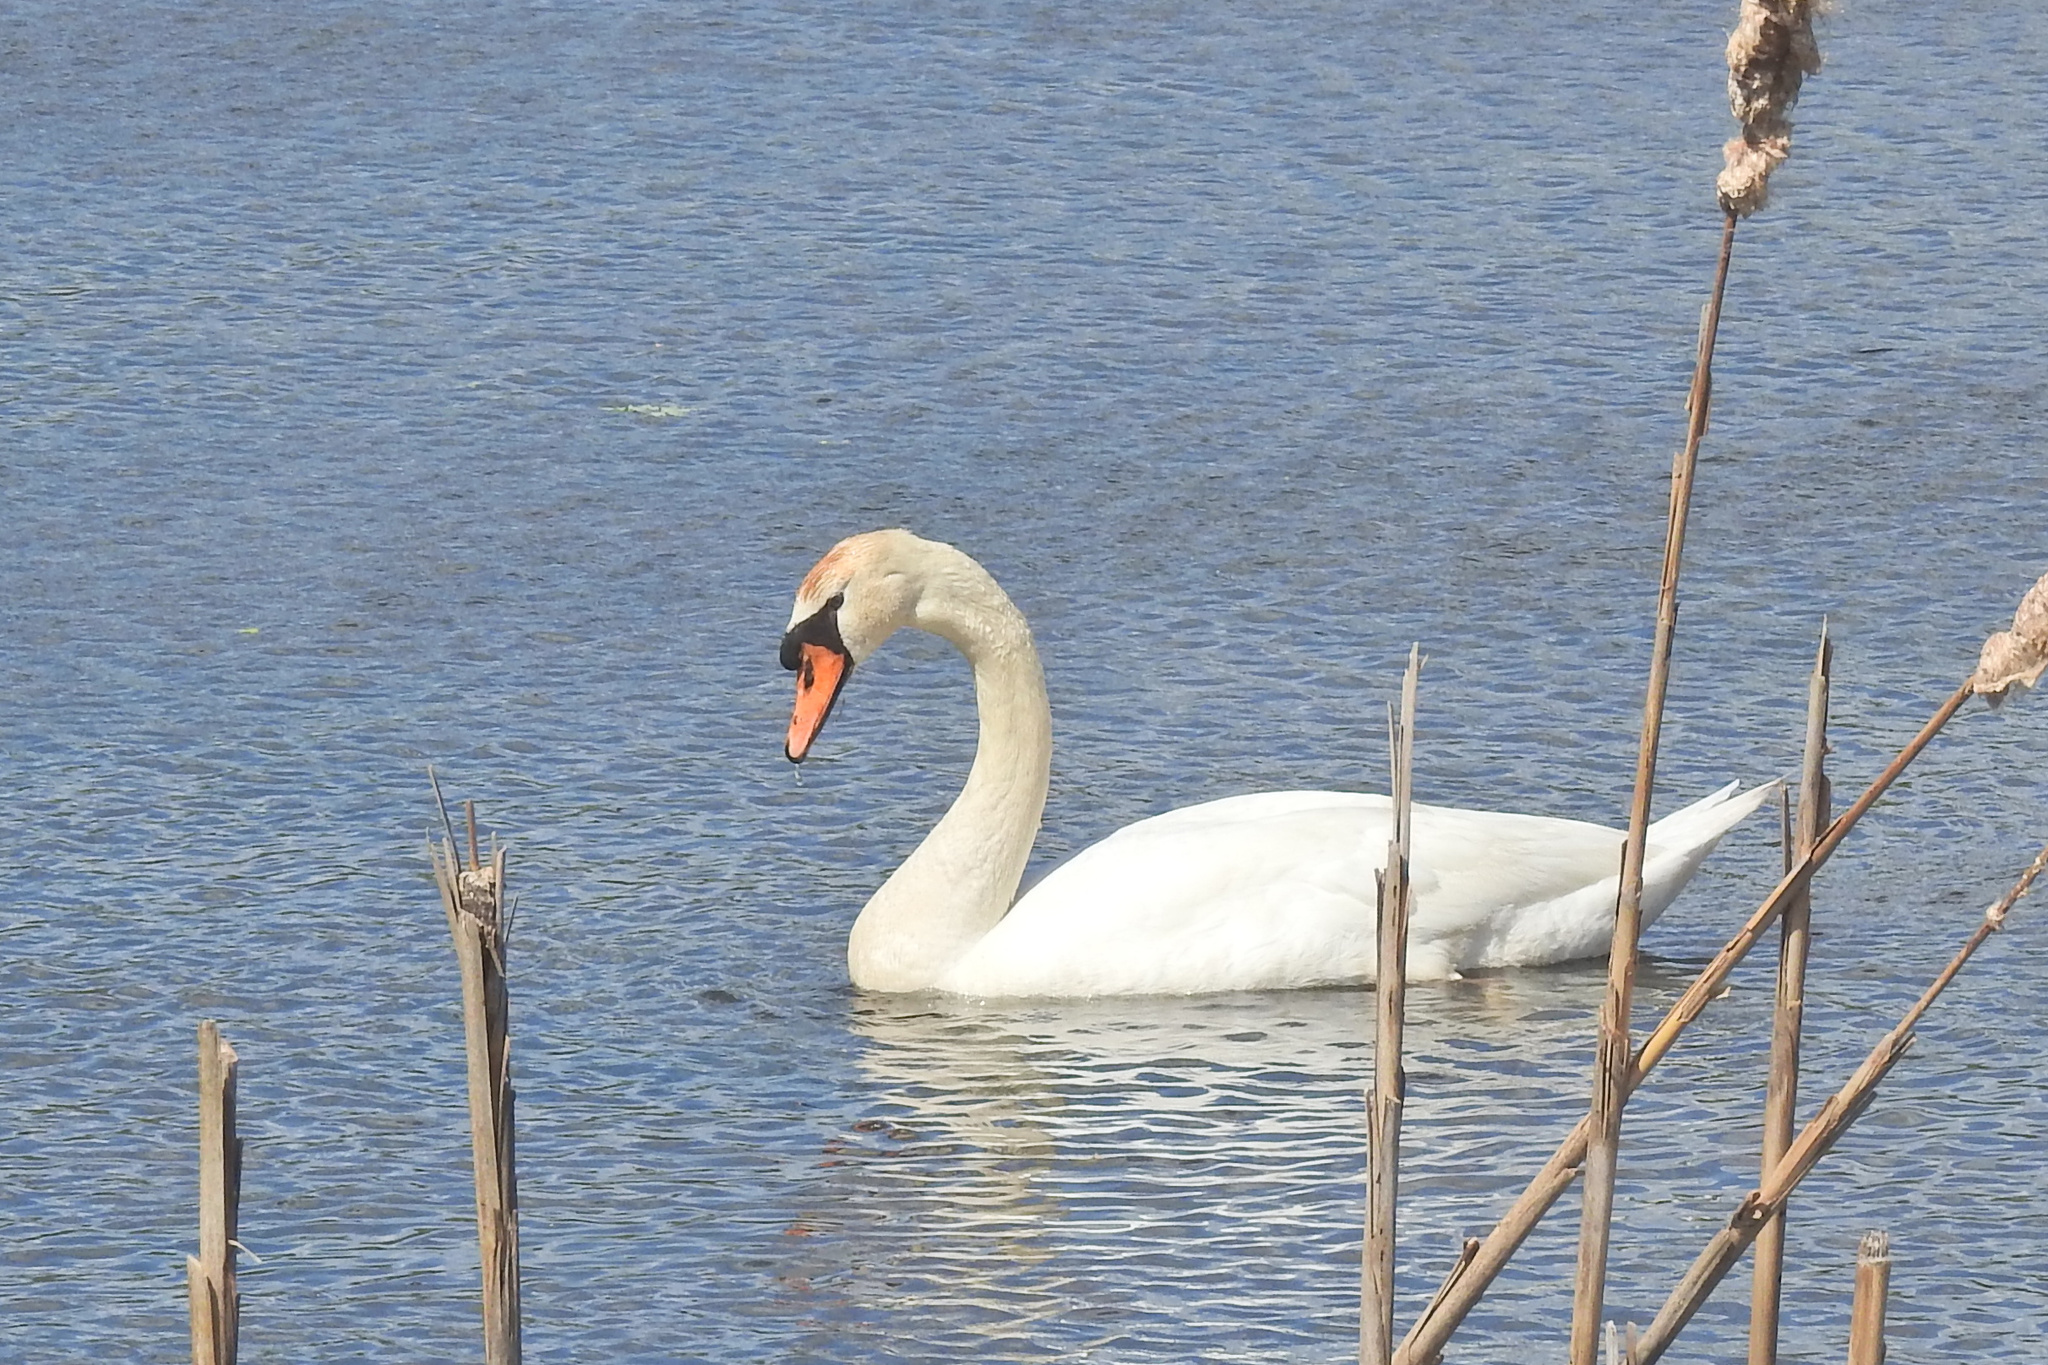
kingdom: Animalia
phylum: Chordata
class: Aves
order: Anseriformes
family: Anatidae
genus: Cygnus
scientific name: Cygnus olor
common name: Mute swan
